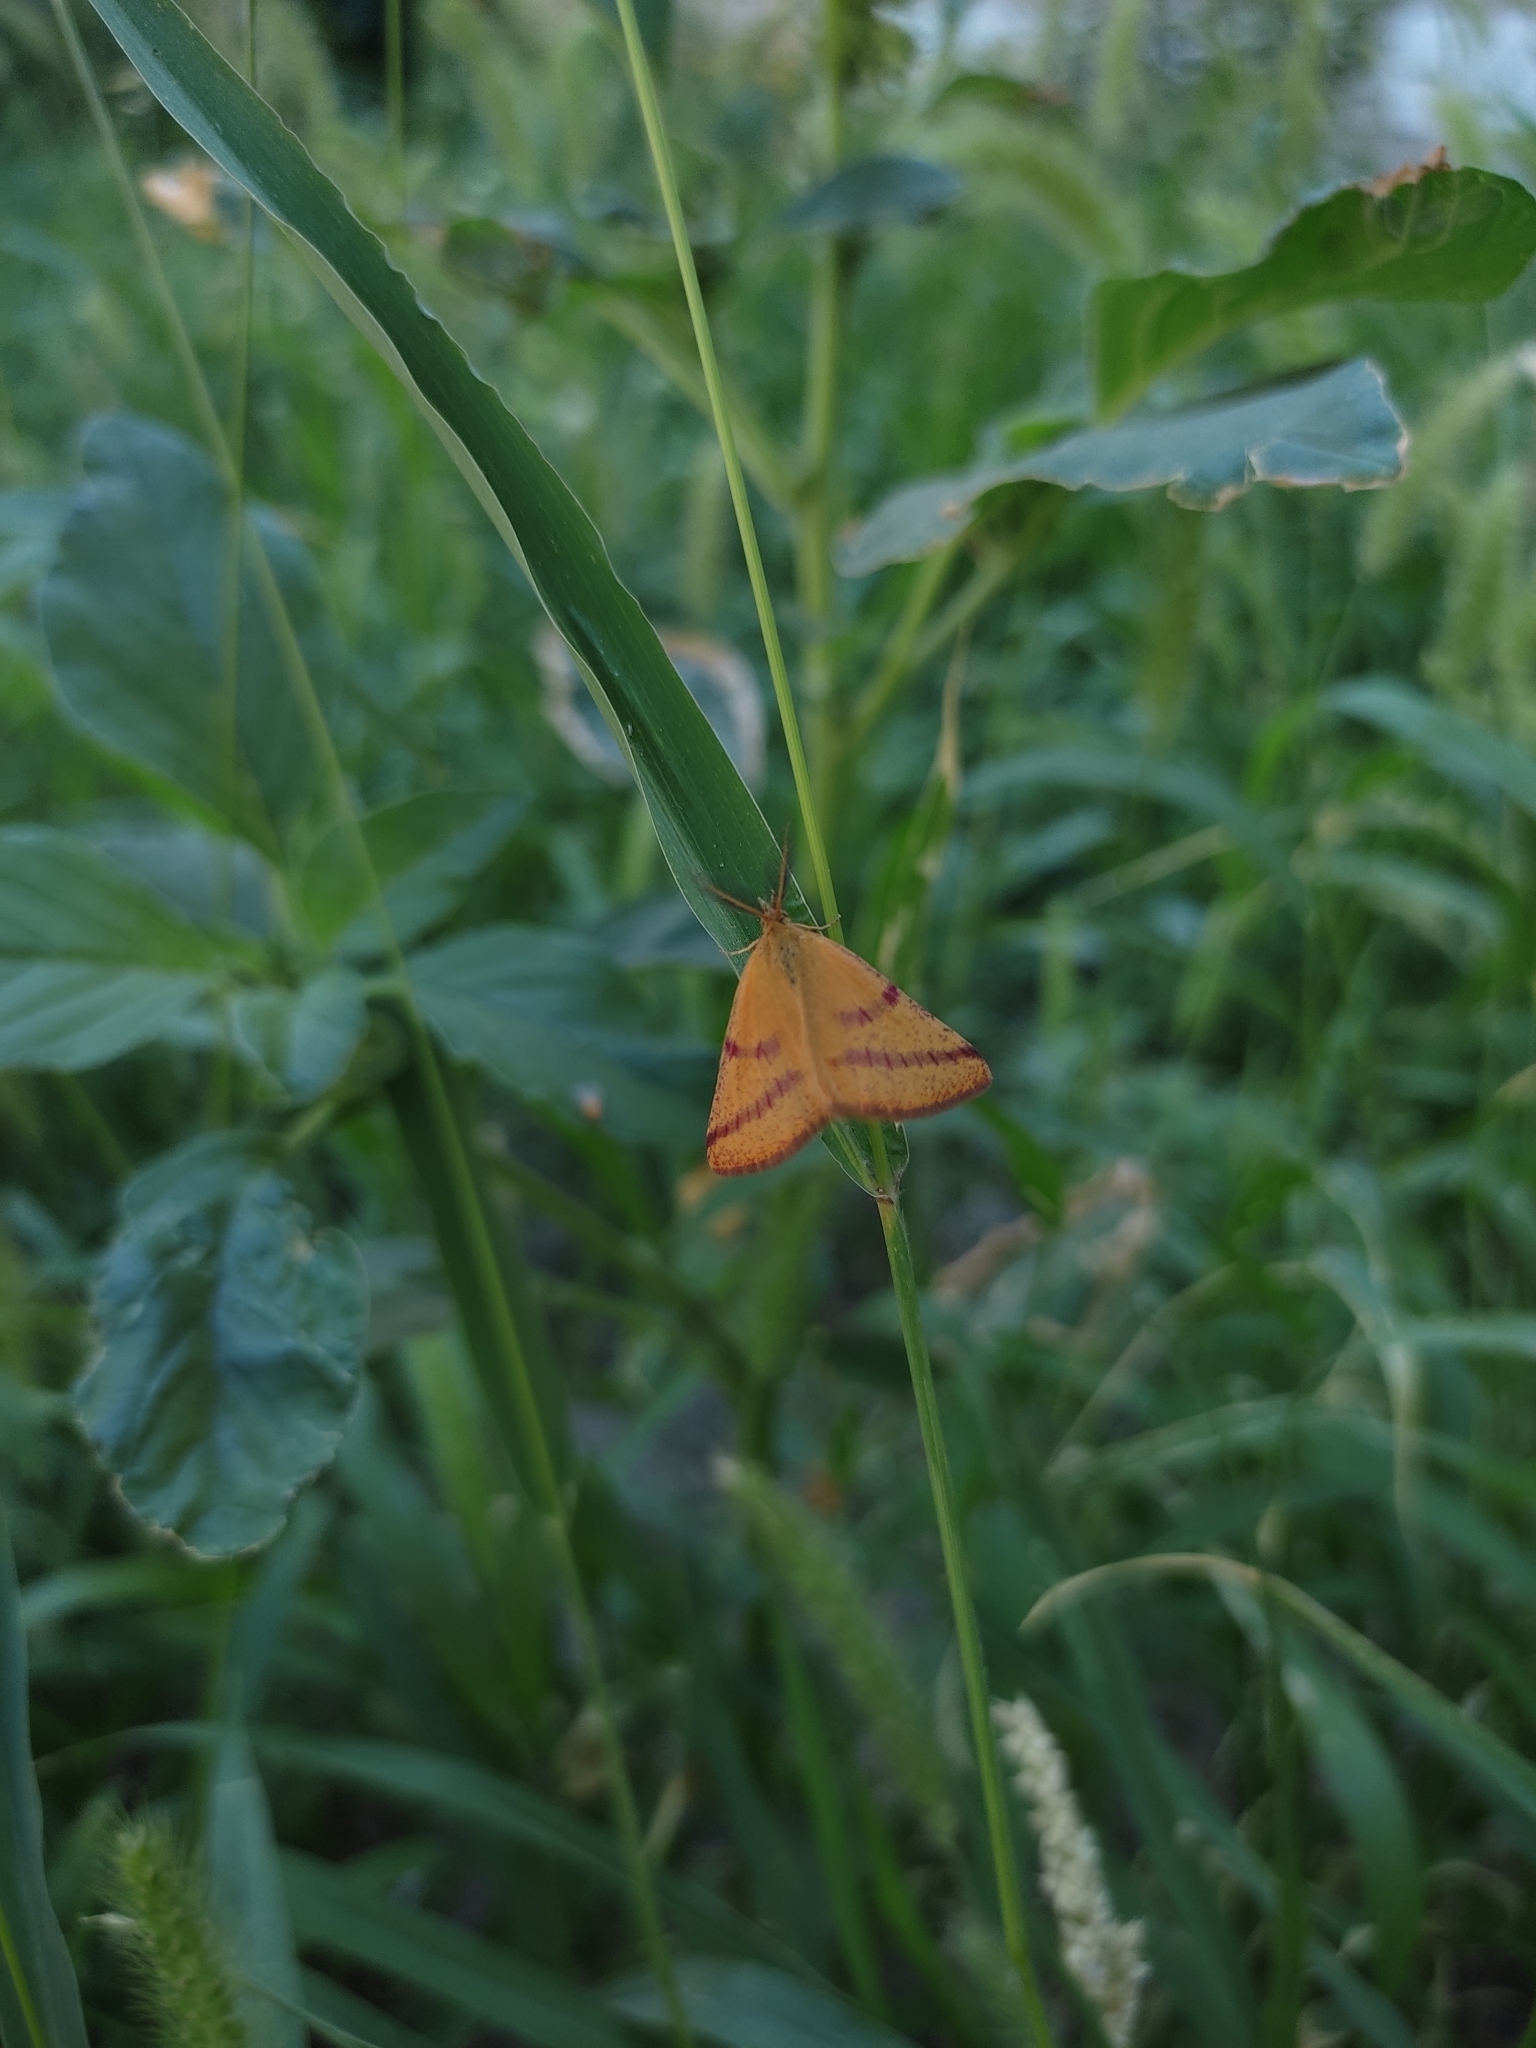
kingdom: Animalia
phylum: Arthropoda
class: Insecta
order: Lepidoptera
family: Geometridae
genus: Lythria
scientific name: Lythria purpuraria
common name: Purple-barred yellow
